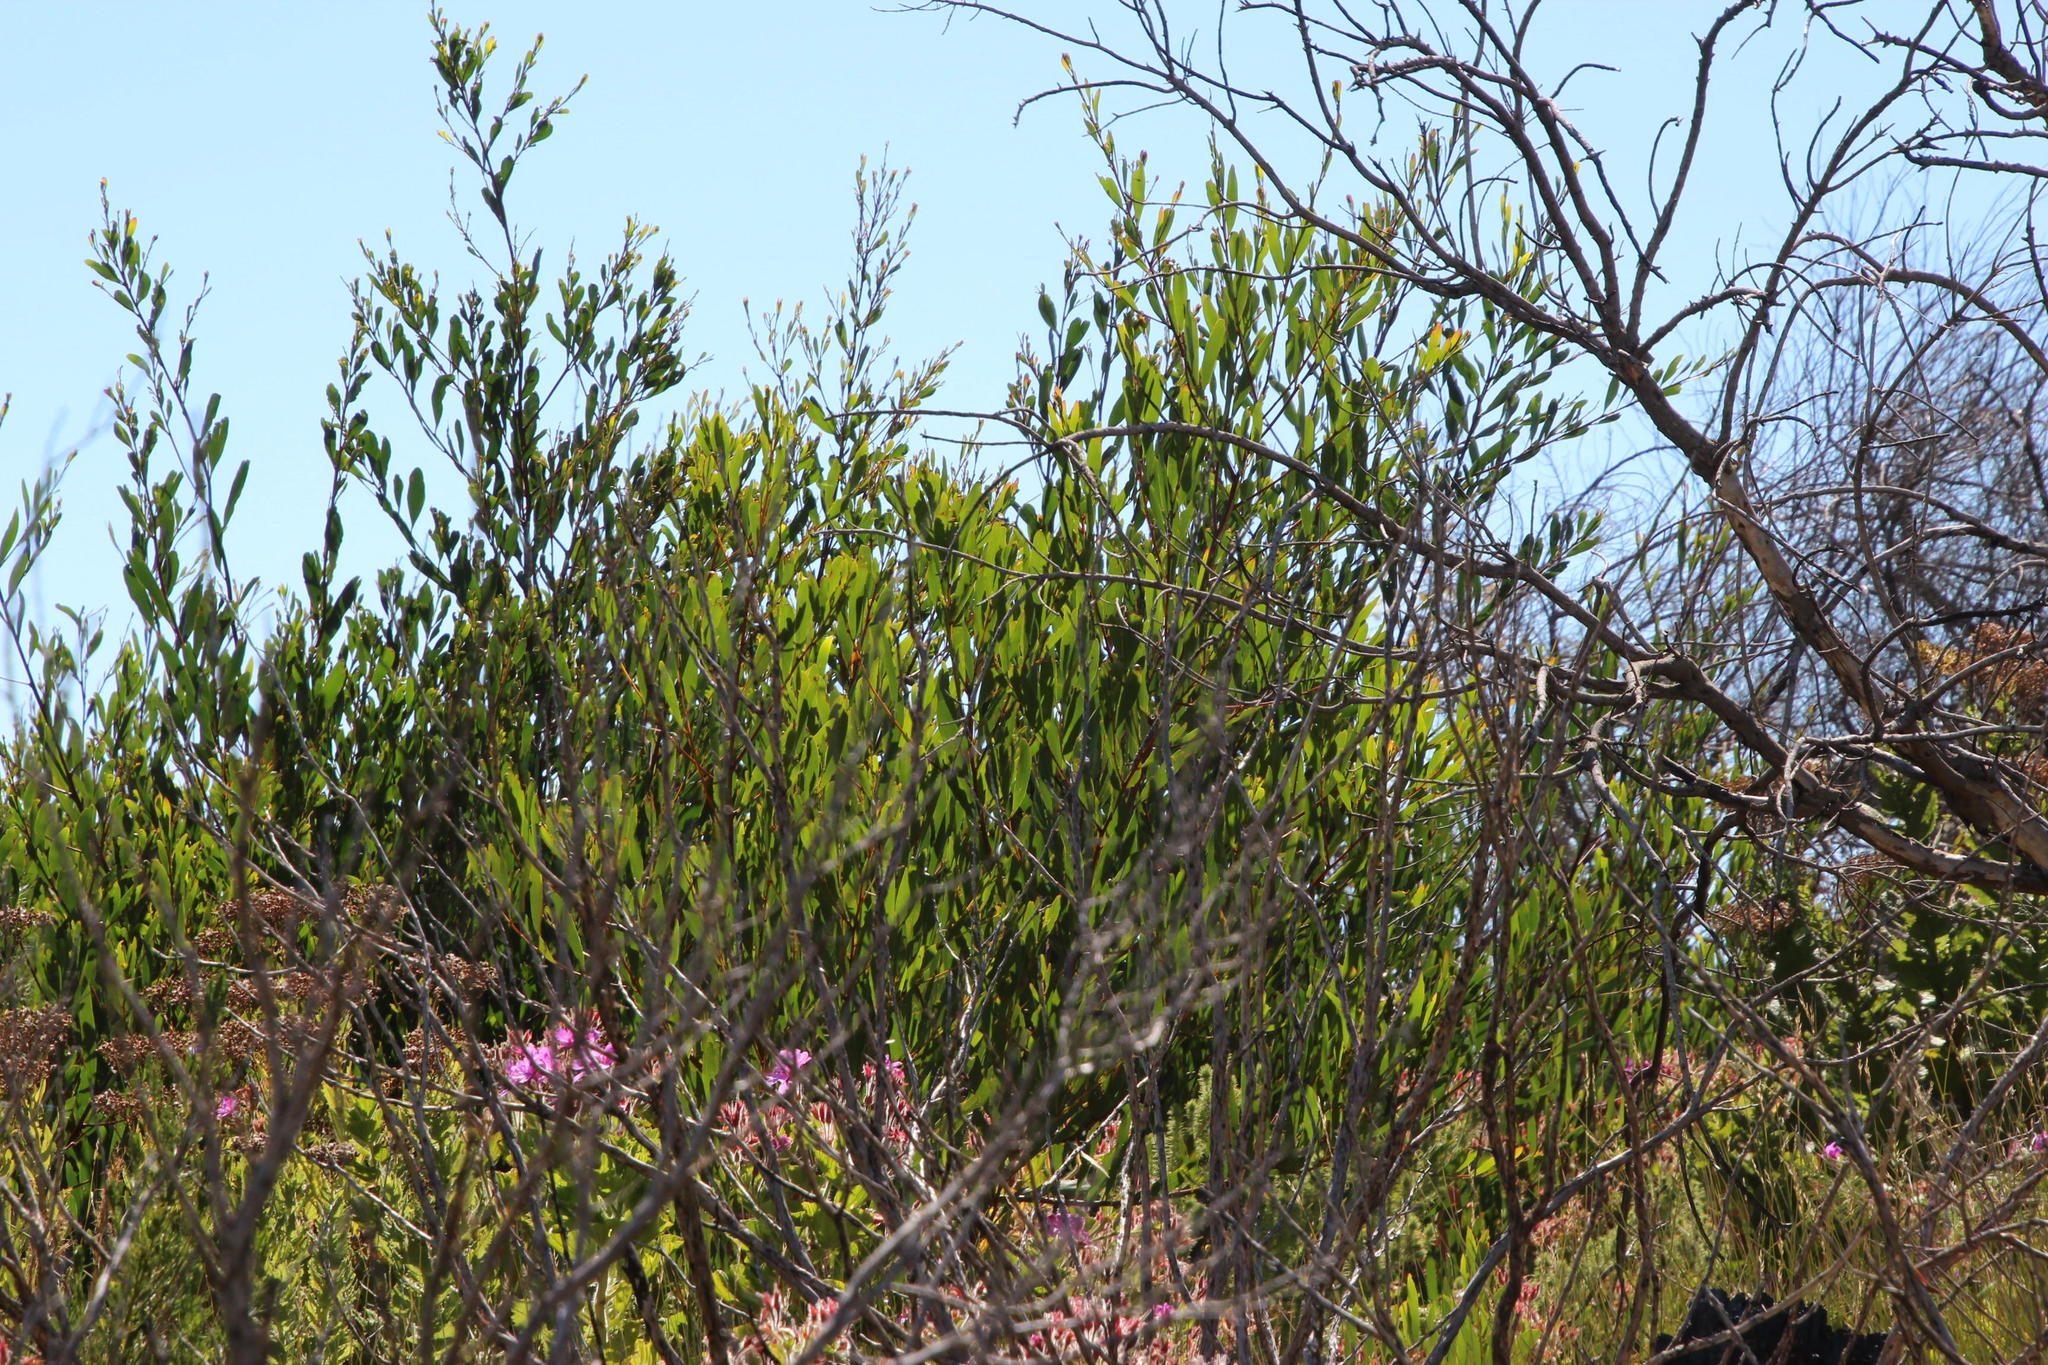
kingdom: Plantae
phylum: Tracheophyta
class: Magnoliopsida
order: Fabales
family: Fabaceae
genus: Acacia
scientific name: Acacia longifolia
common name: Sydney golden wattle
